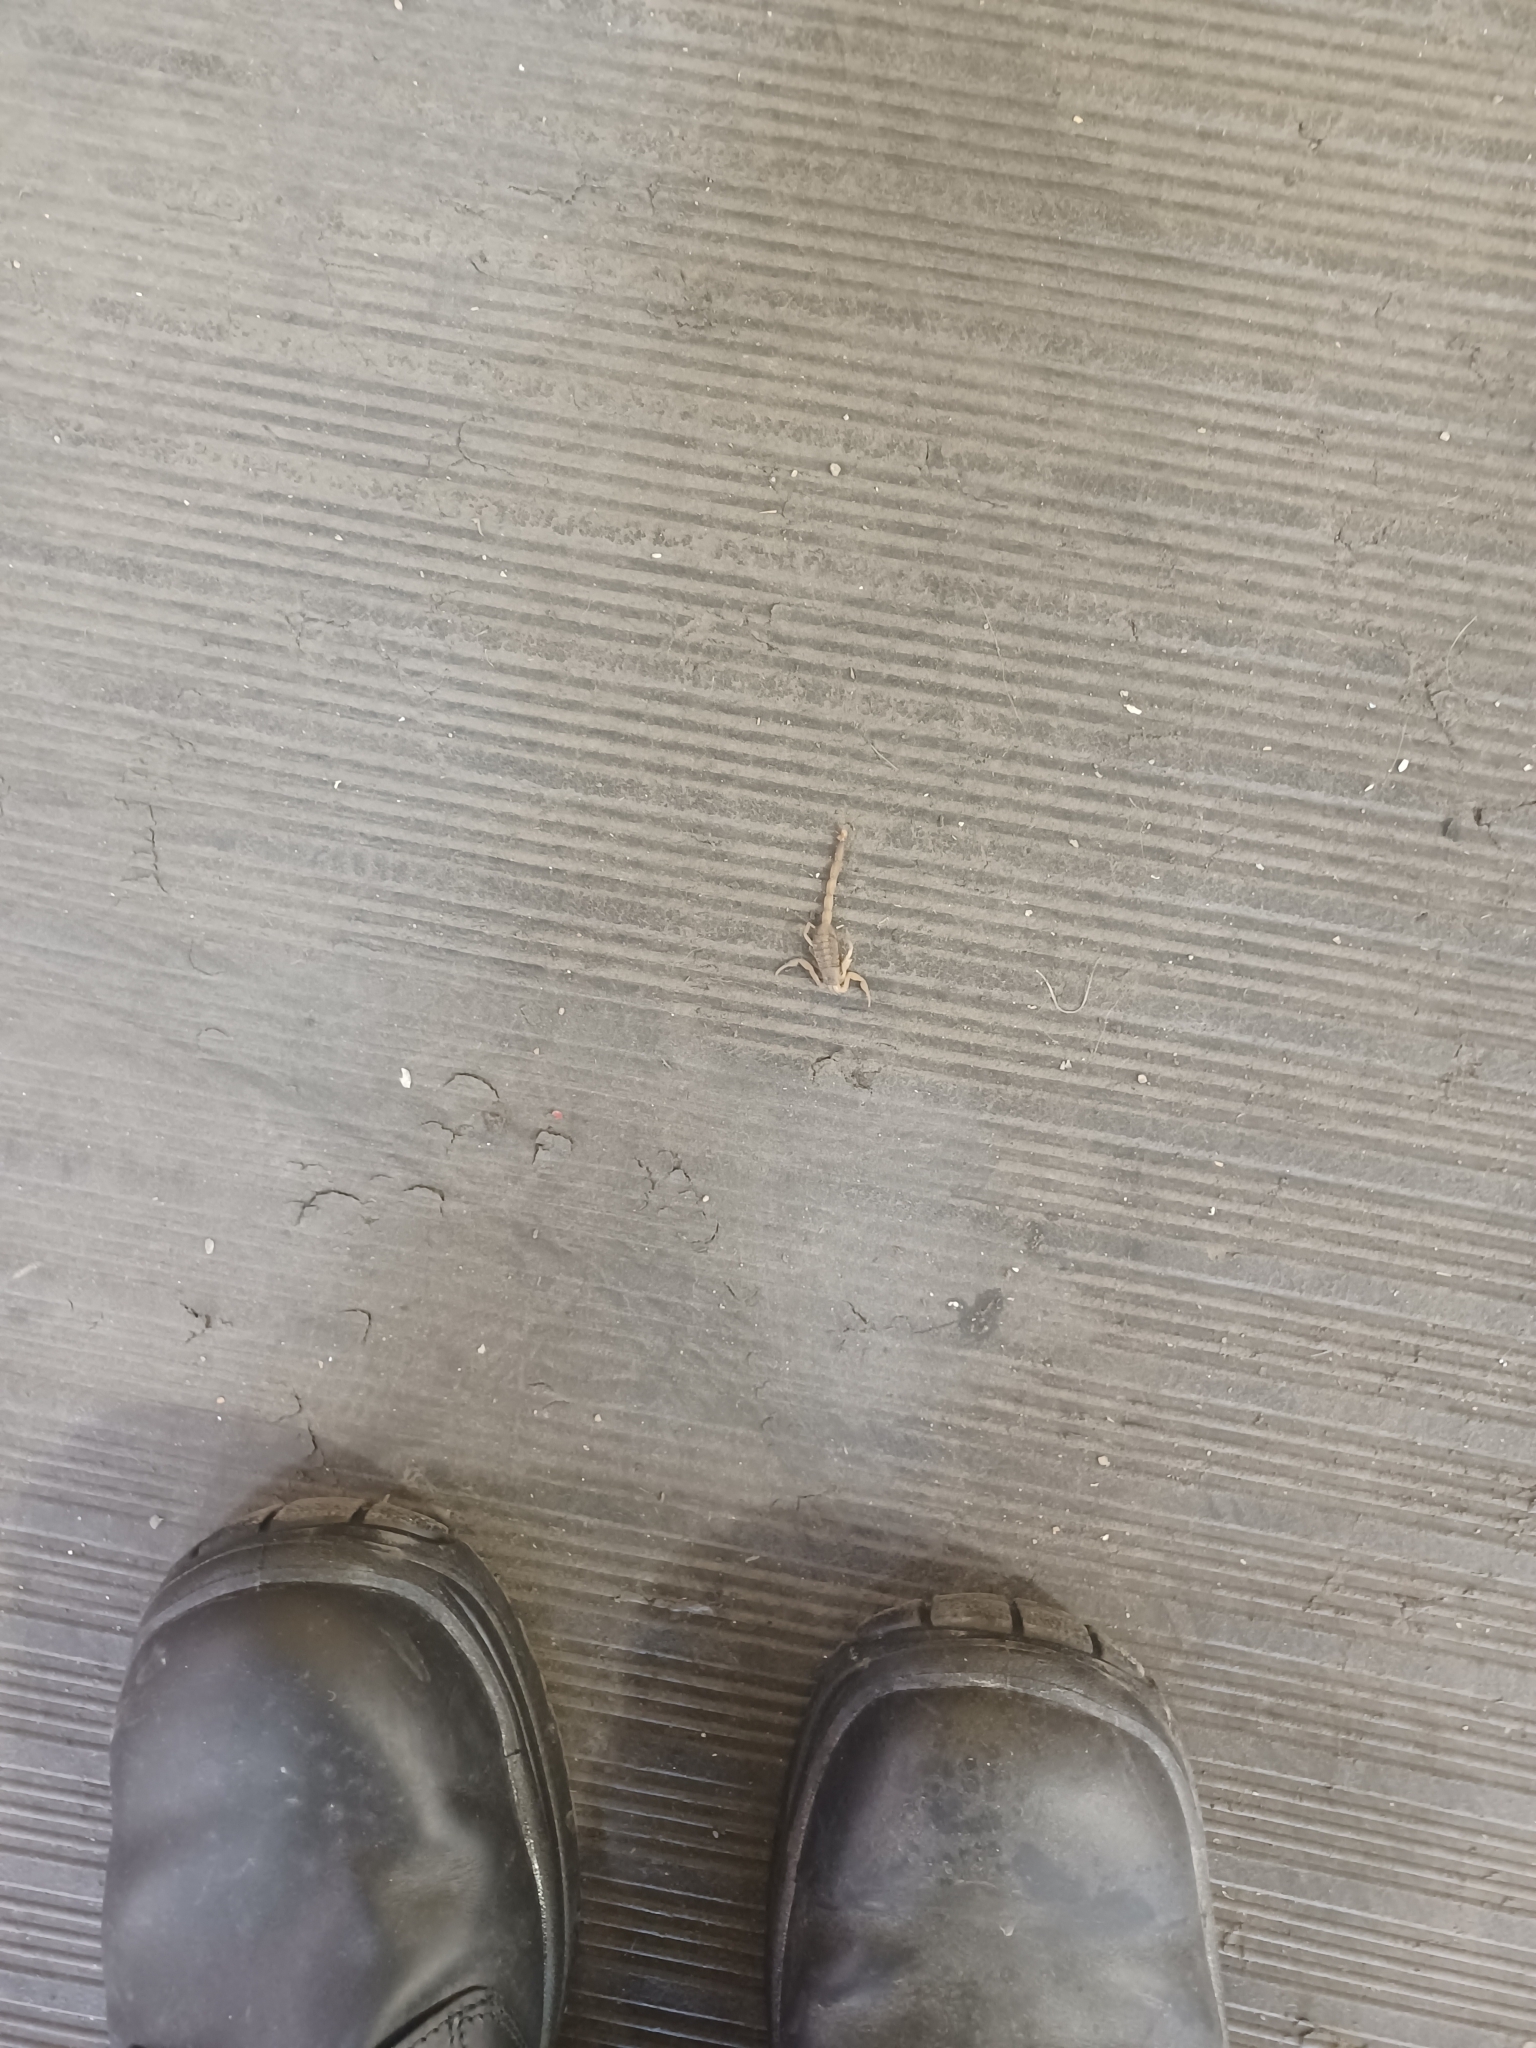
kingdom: Animalia
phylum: Arthropoda
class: Arachnida
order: Scorpiones
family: Buthidae
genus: Centruroides
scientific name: Centruroides vittatus
